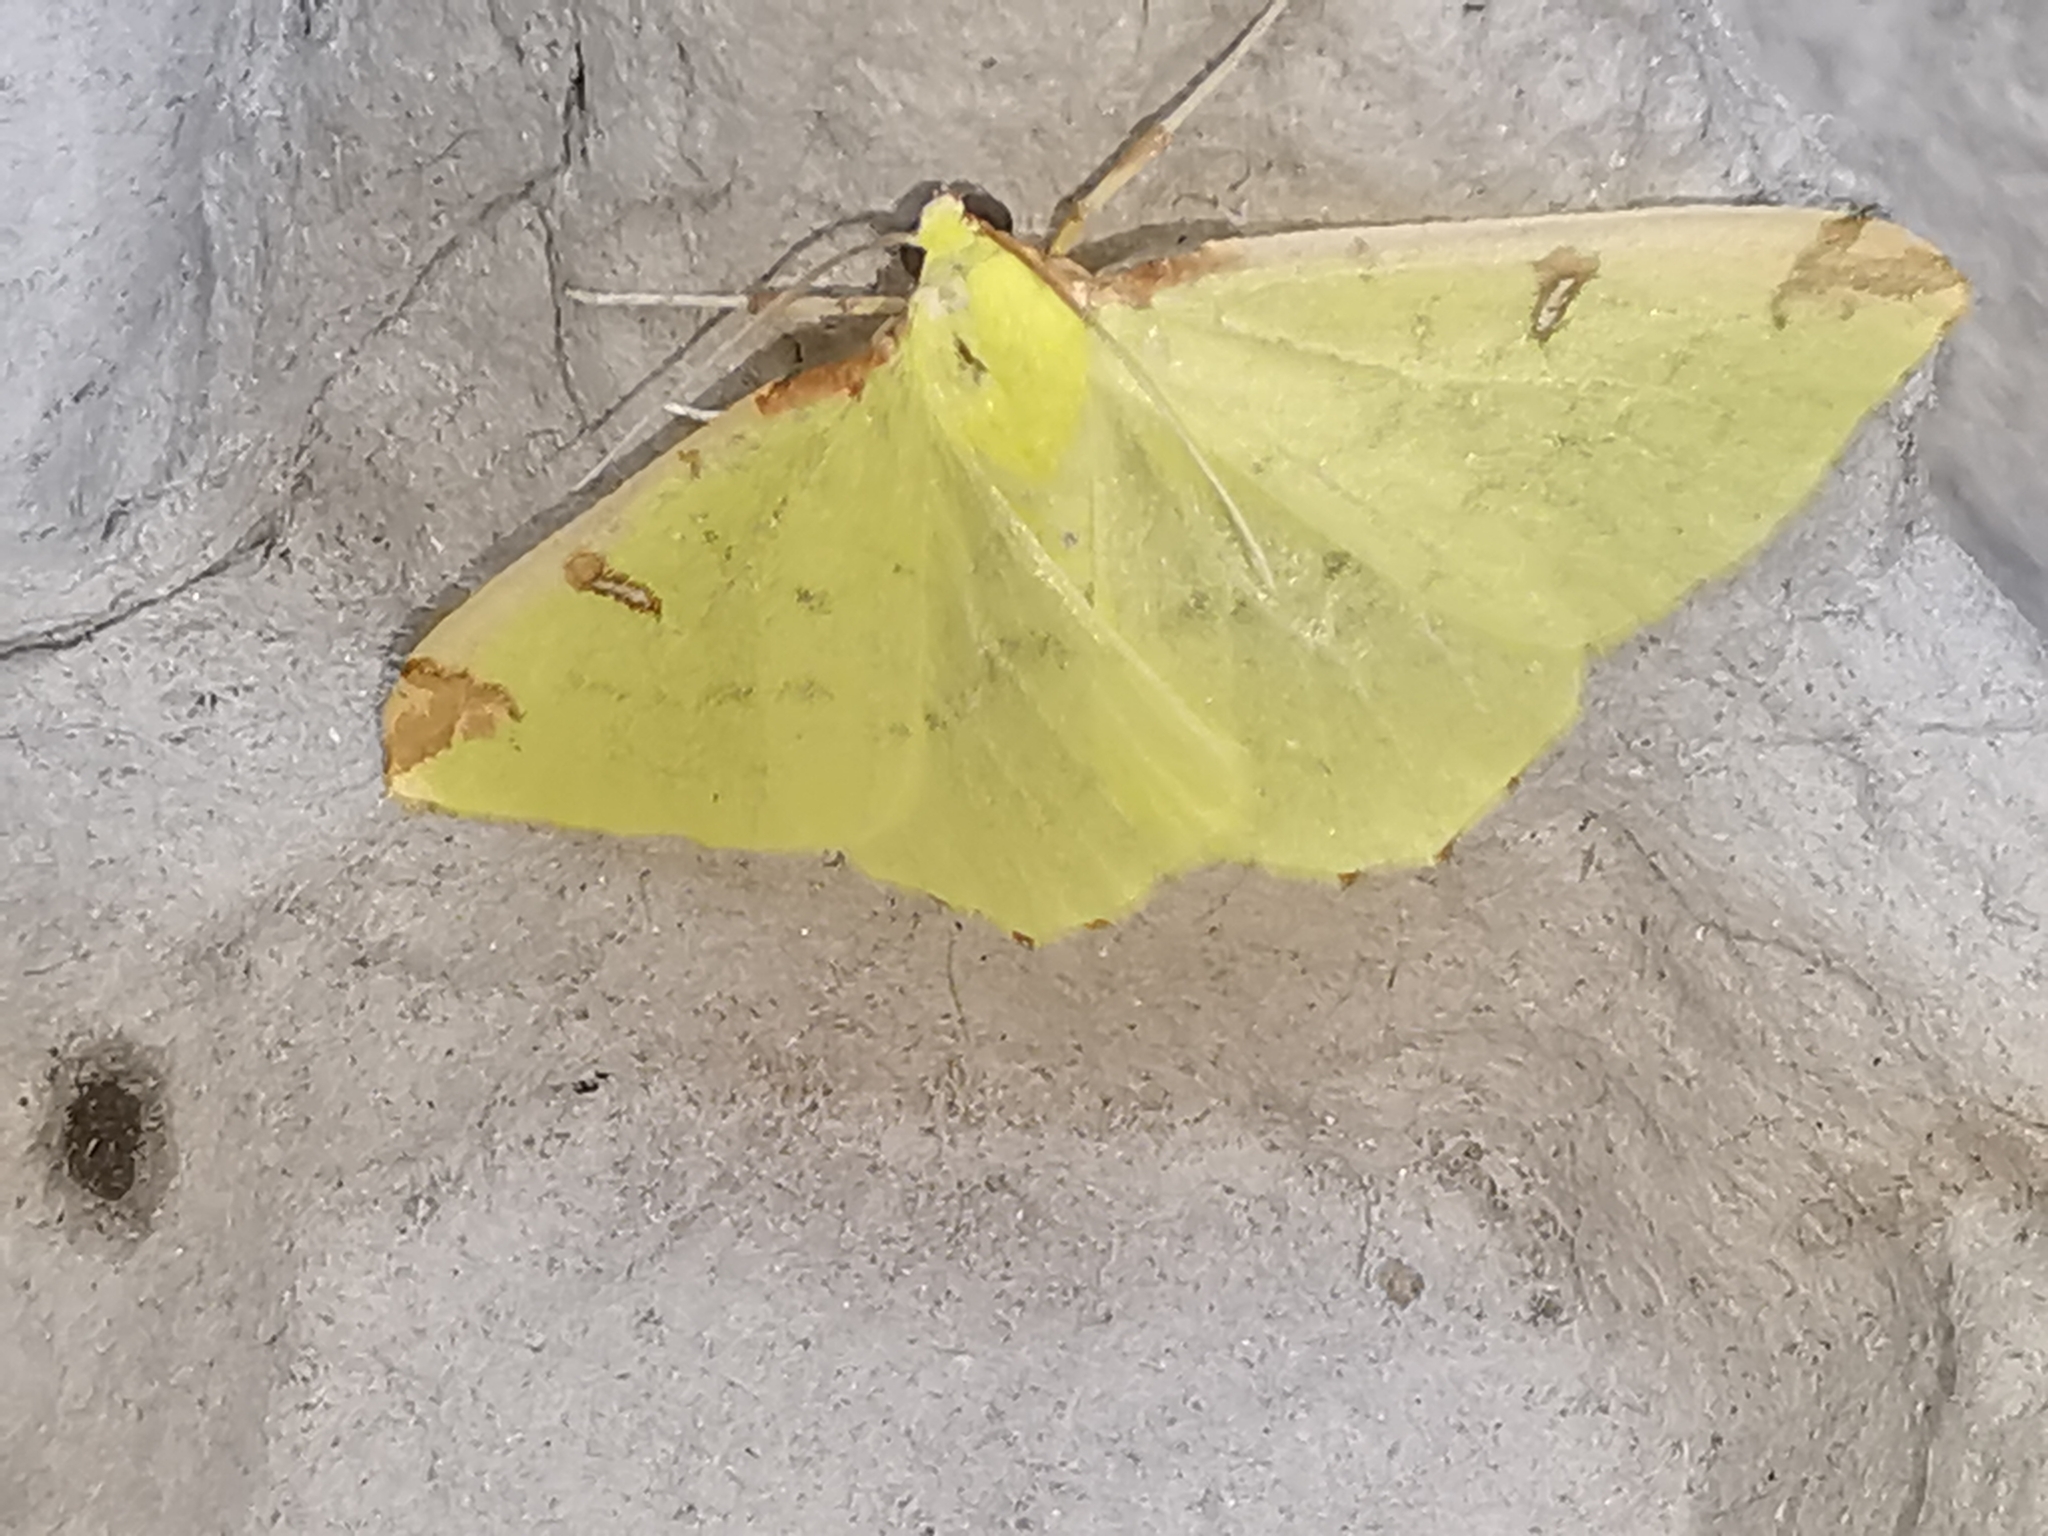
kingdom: Animalia
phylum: Arthropoda
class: Insecta
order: Lepidoptera
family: Geometridae
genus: Opisthograptis
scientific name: Opisthograptis luteolata
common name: Brimstone moth
